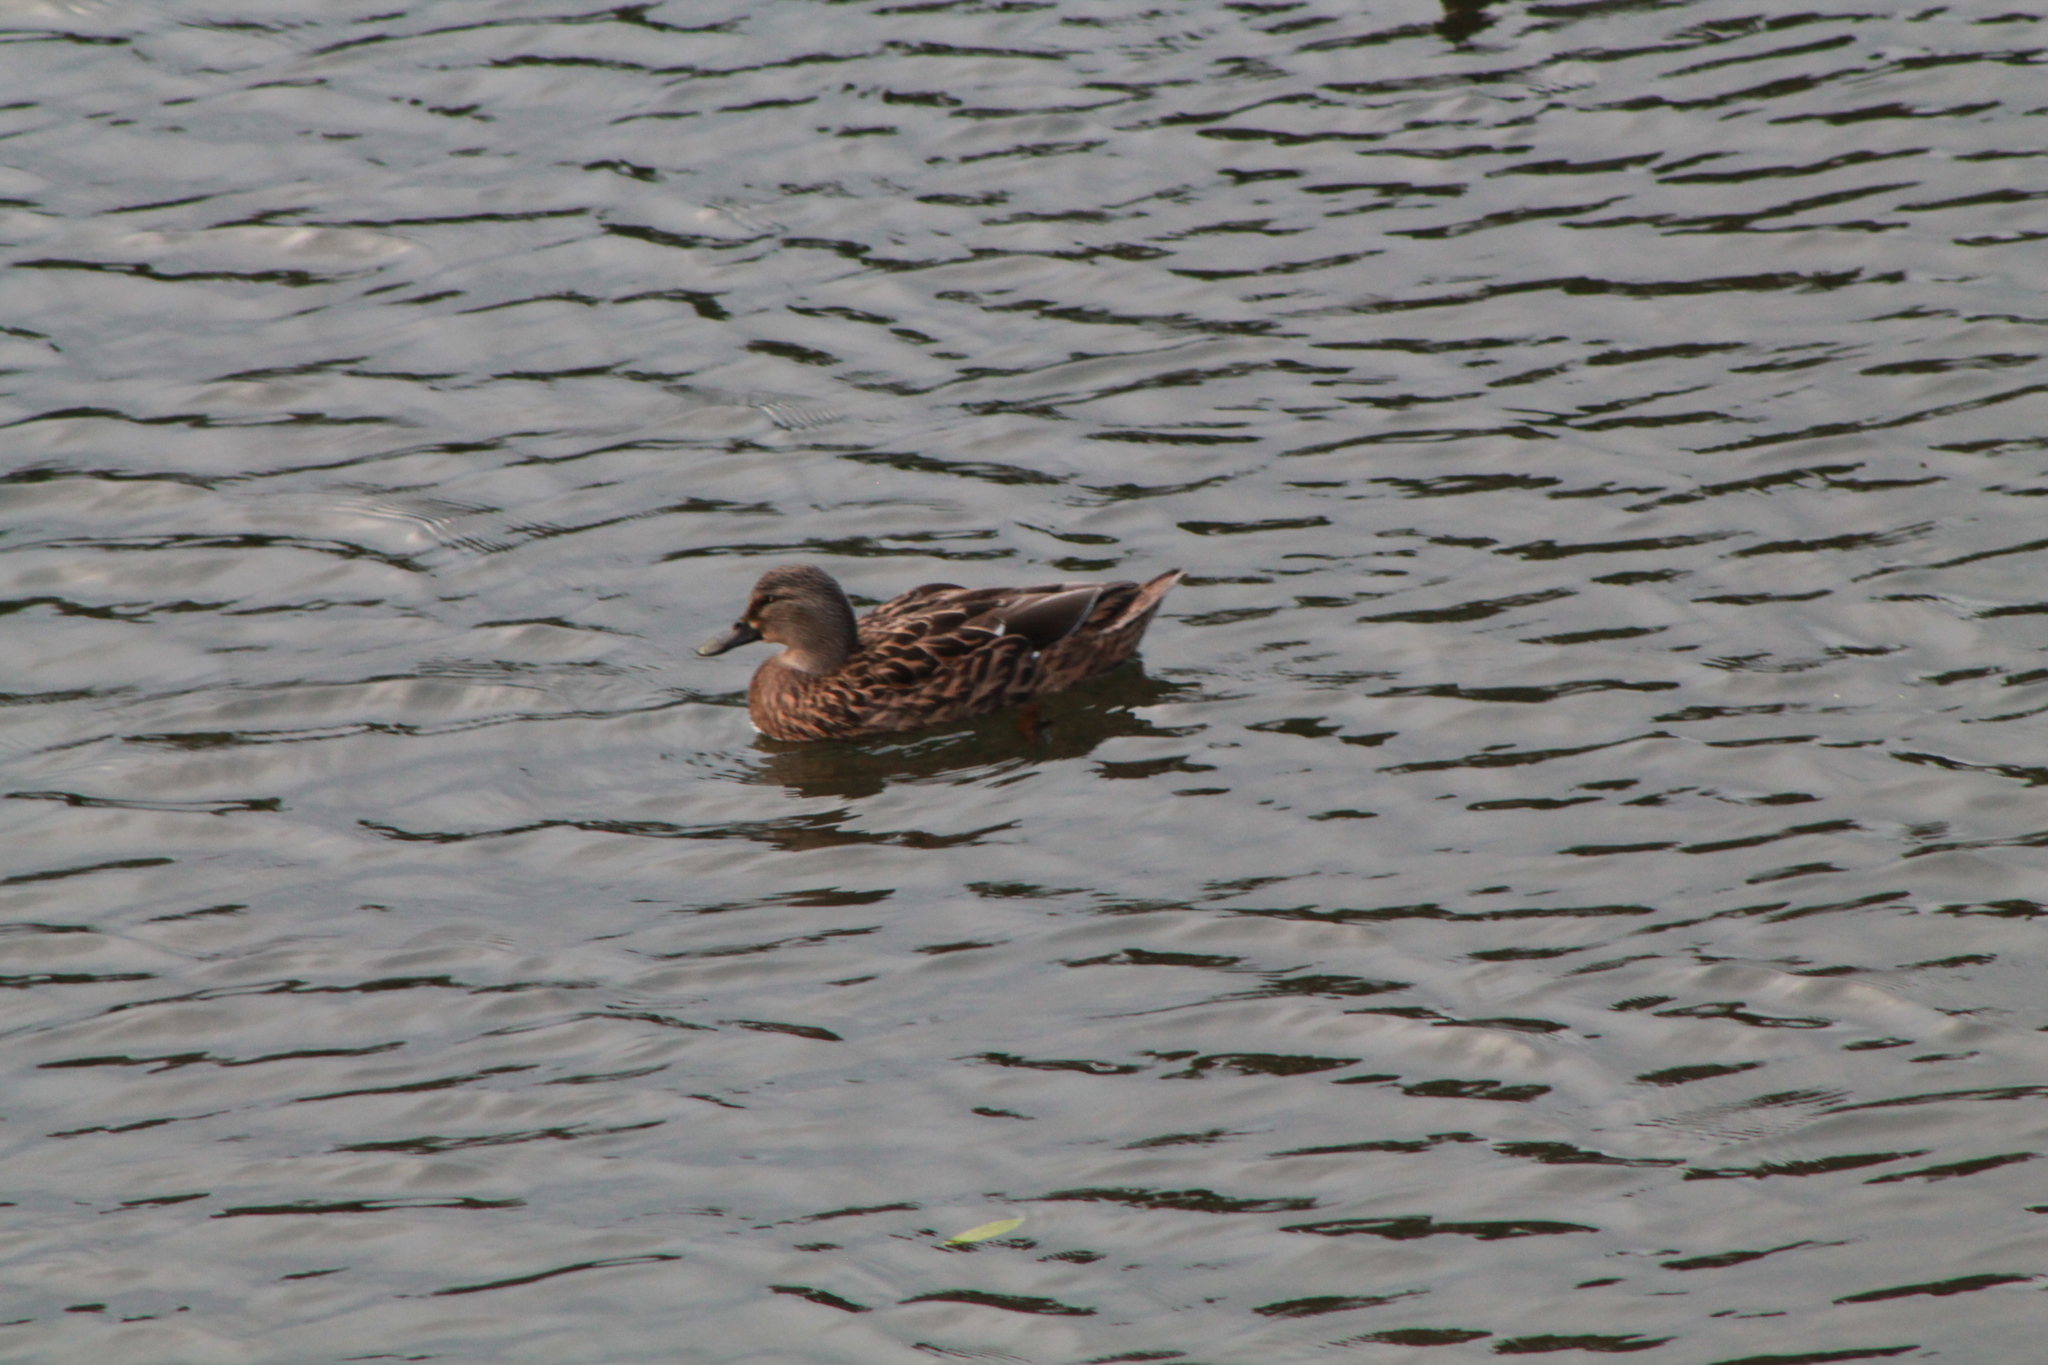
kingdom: Animalia
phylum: Chordata
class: Aves
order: Anseriformes
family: Anatidae
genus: Anas
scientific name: Anas
